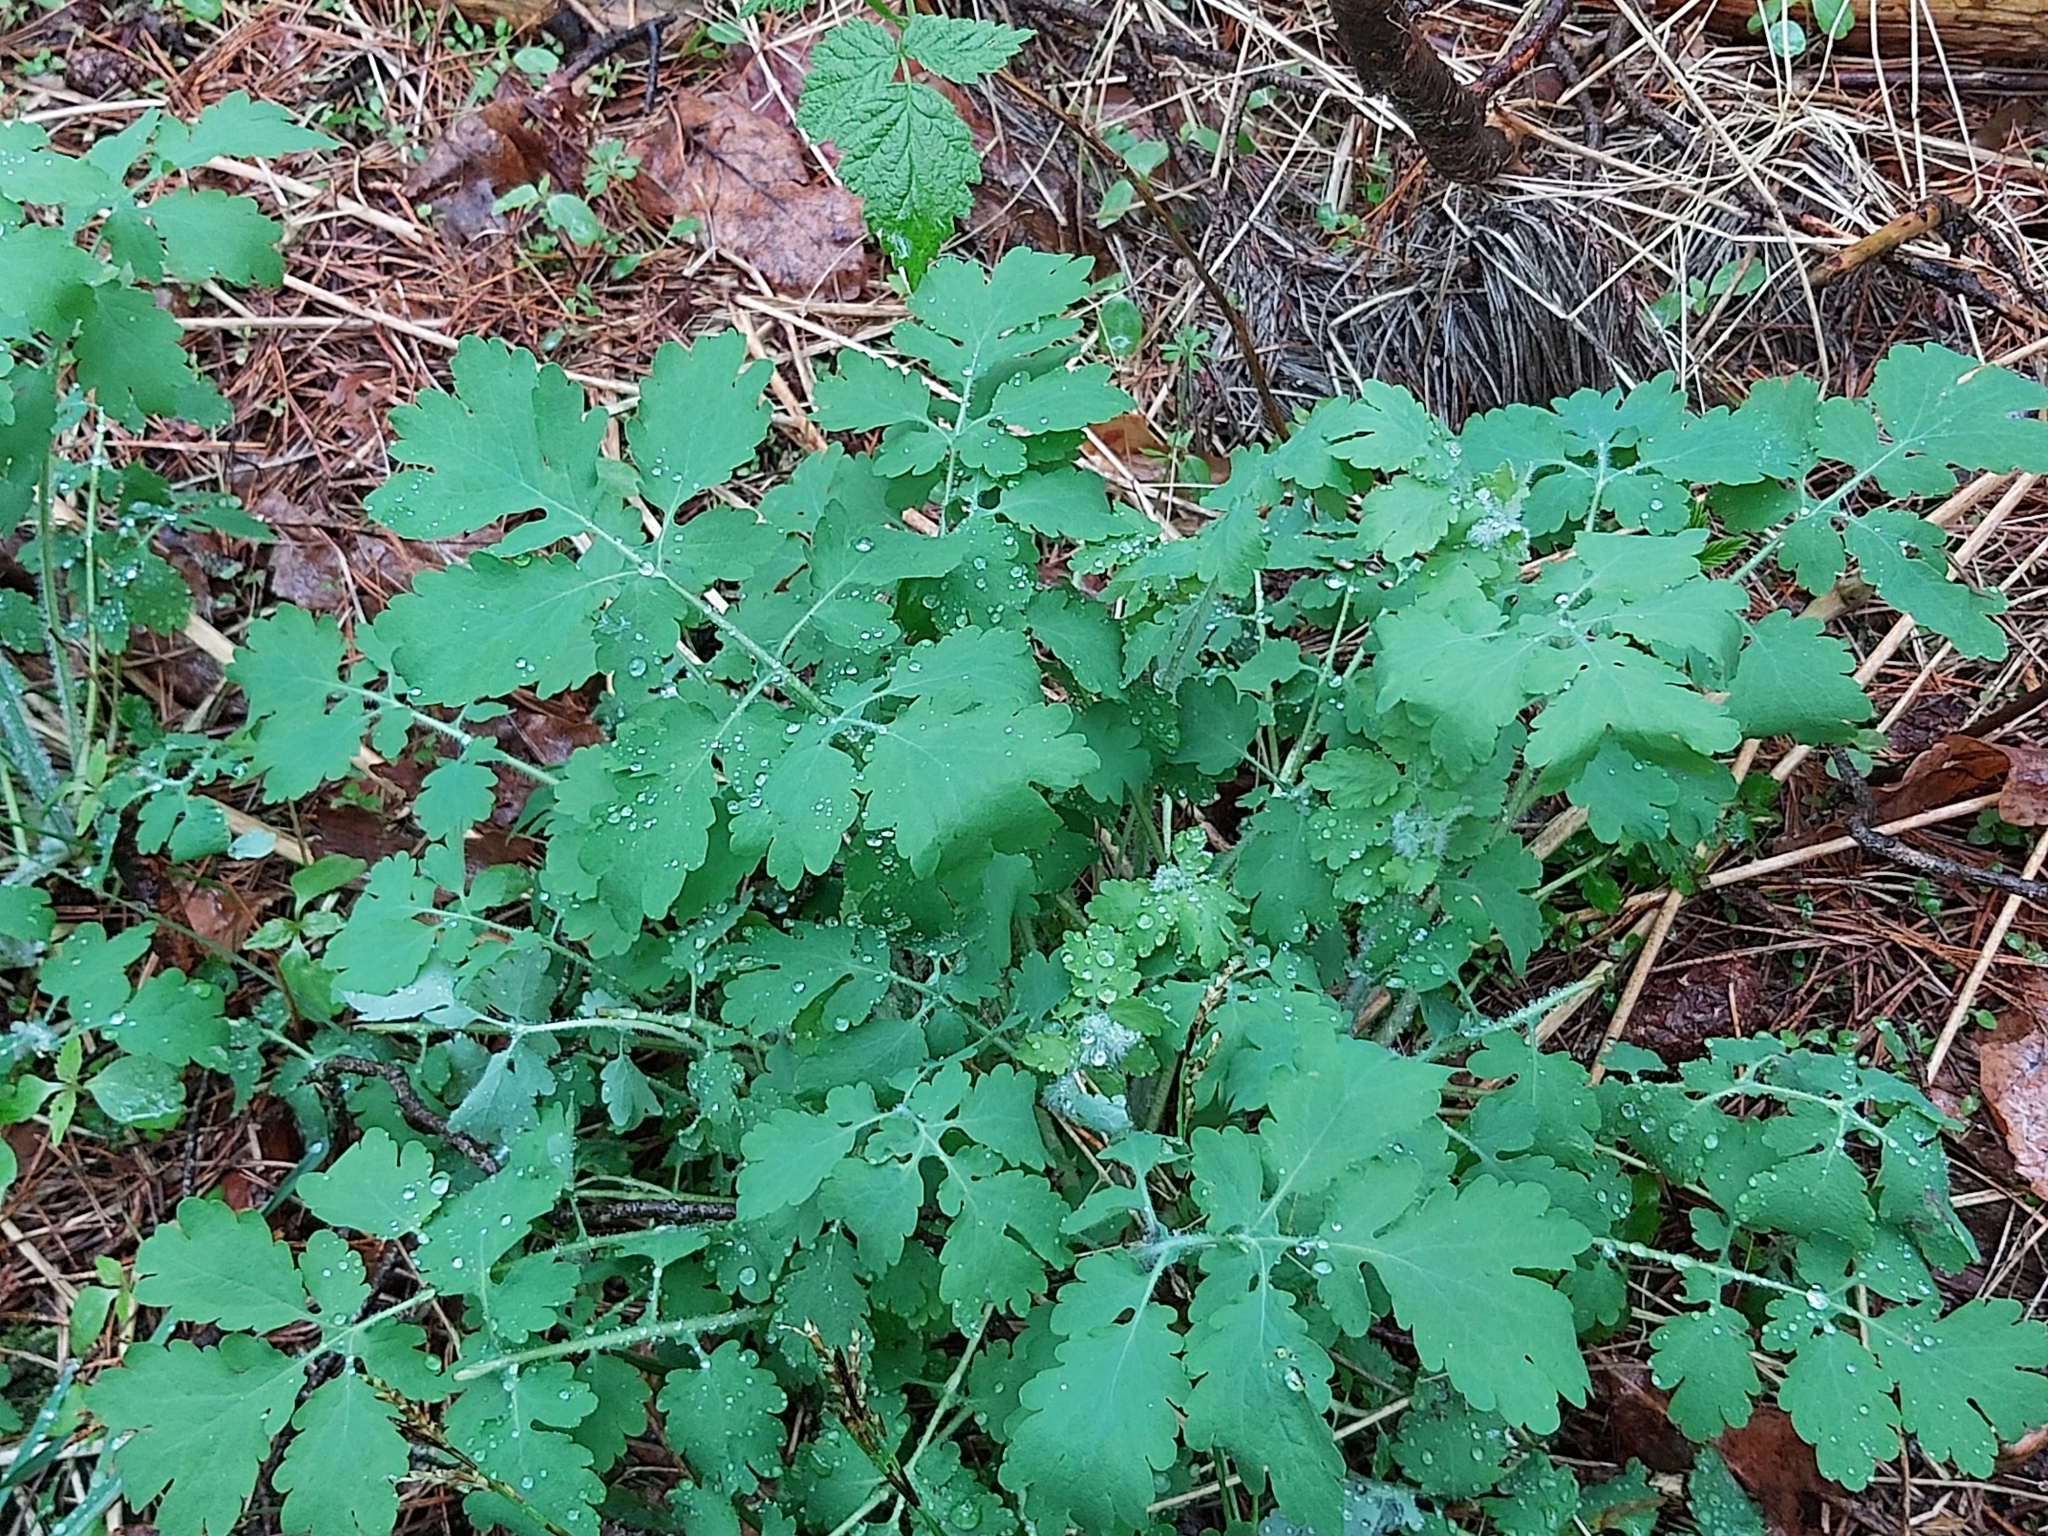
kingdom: Plantae
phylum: Tracheophyta
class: Magnoliopsida
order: Ranunculales
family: Papaveraceae
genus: Chelidonium
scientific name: Chelidonium majus
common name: Greater celandine
